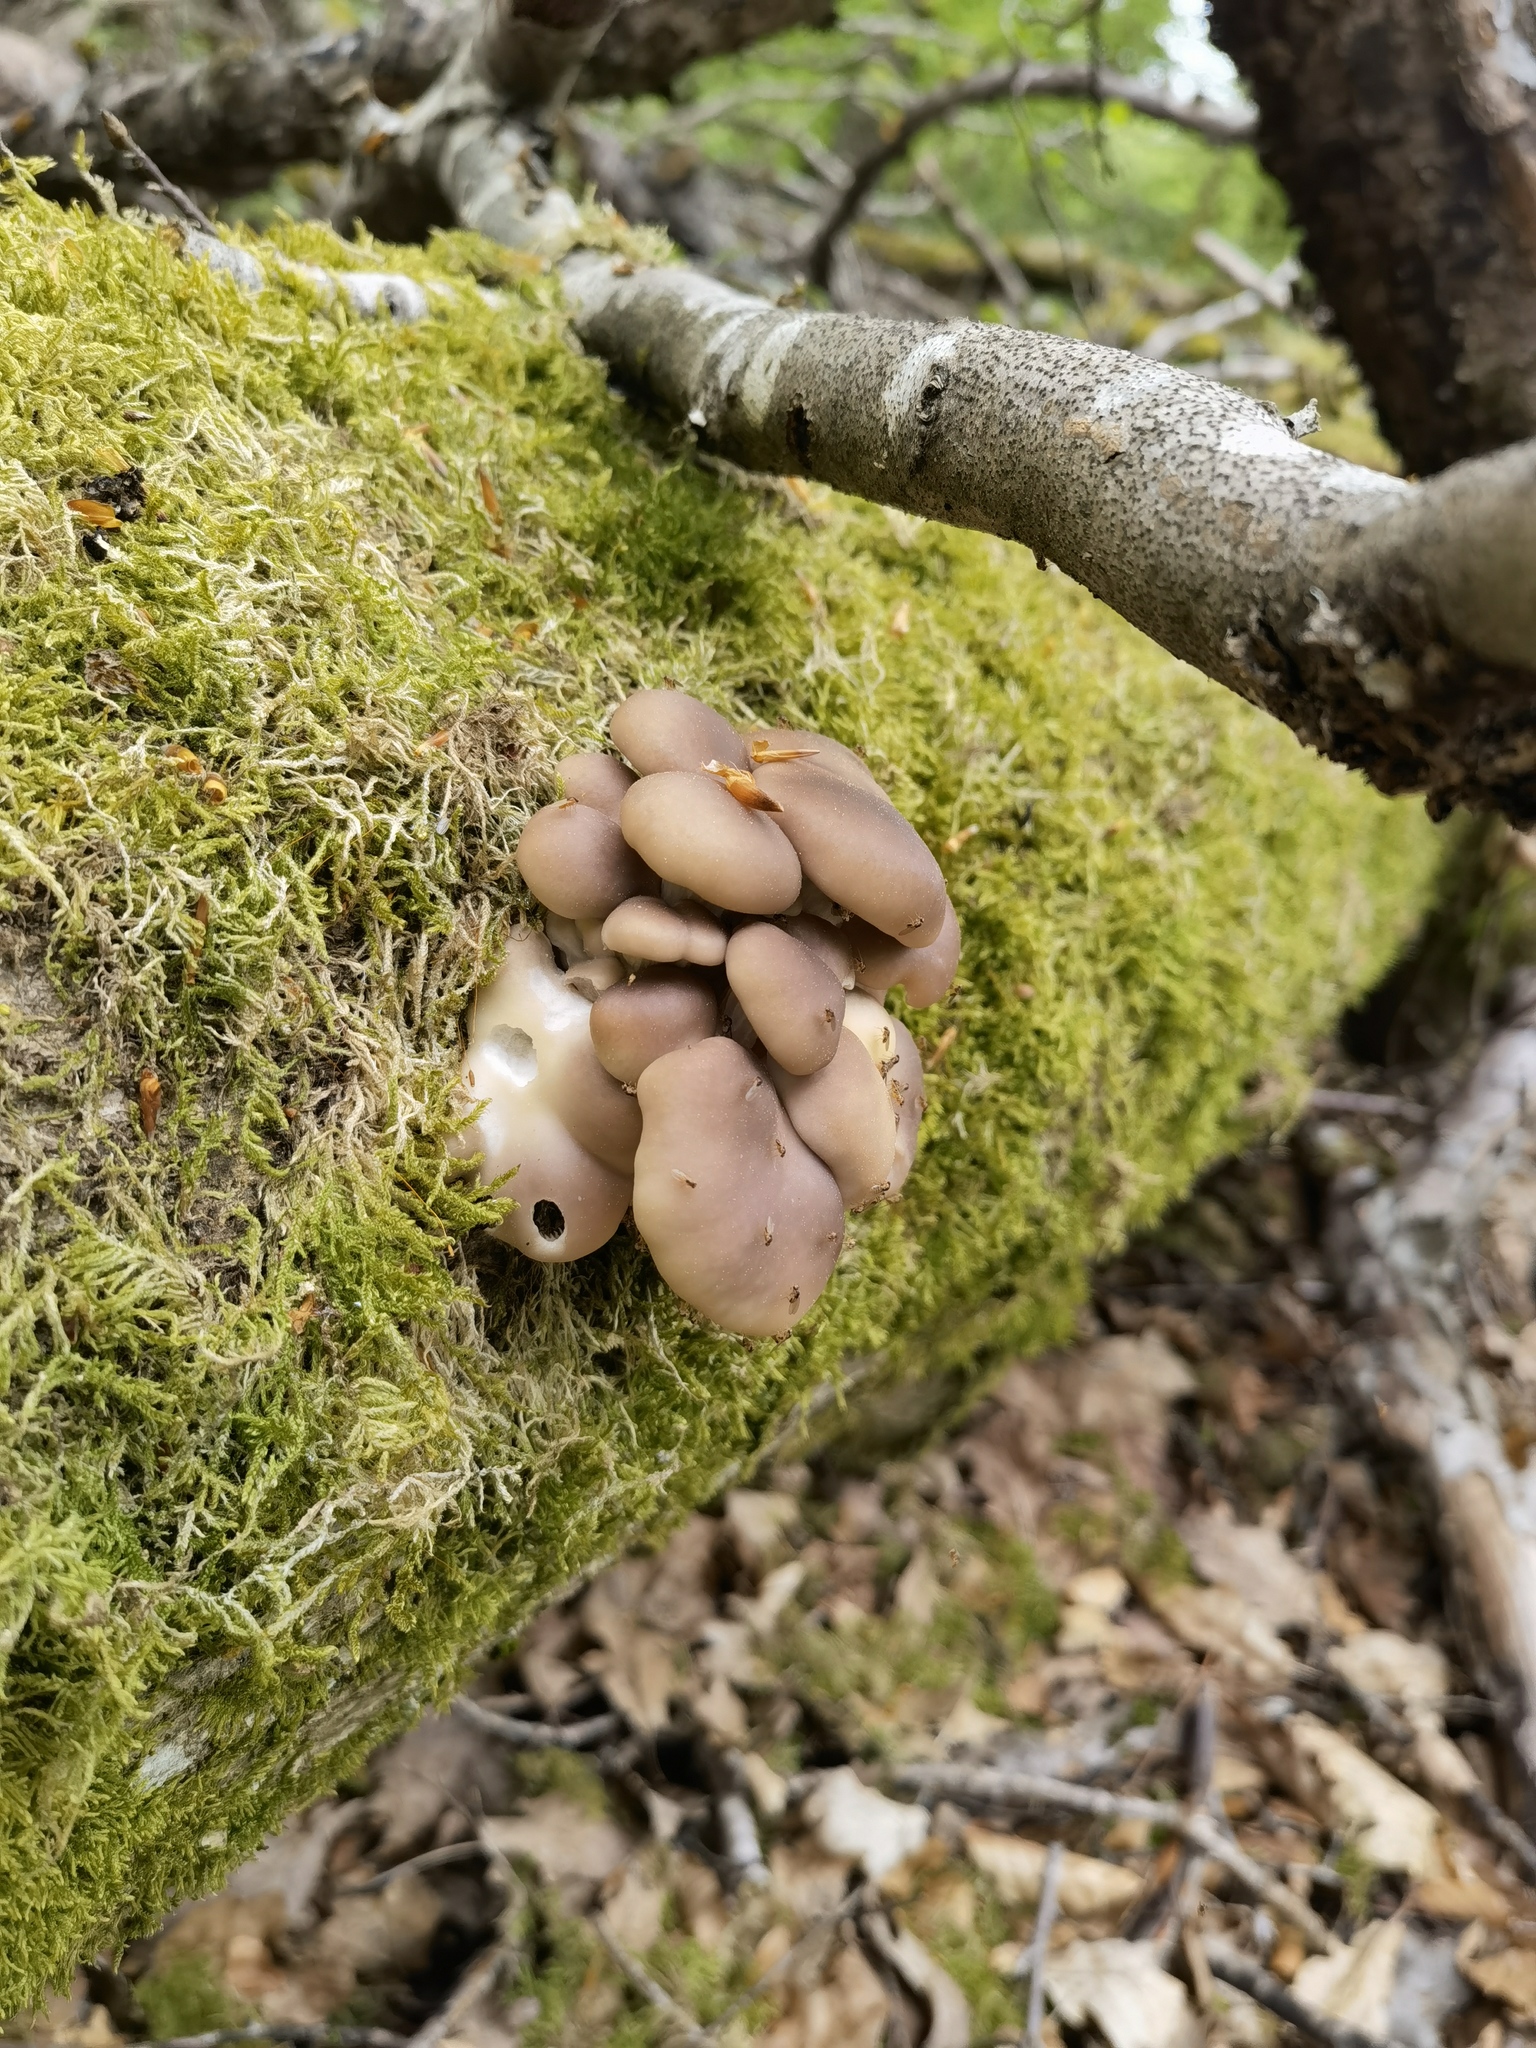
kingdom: Fungi
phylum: Basidiomycota
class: Agaricomycetes
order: Agaricales
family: Pleurotaceae
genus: Pleurotus
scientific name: Pleurotus ostreatus
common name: Oyster mushroom
